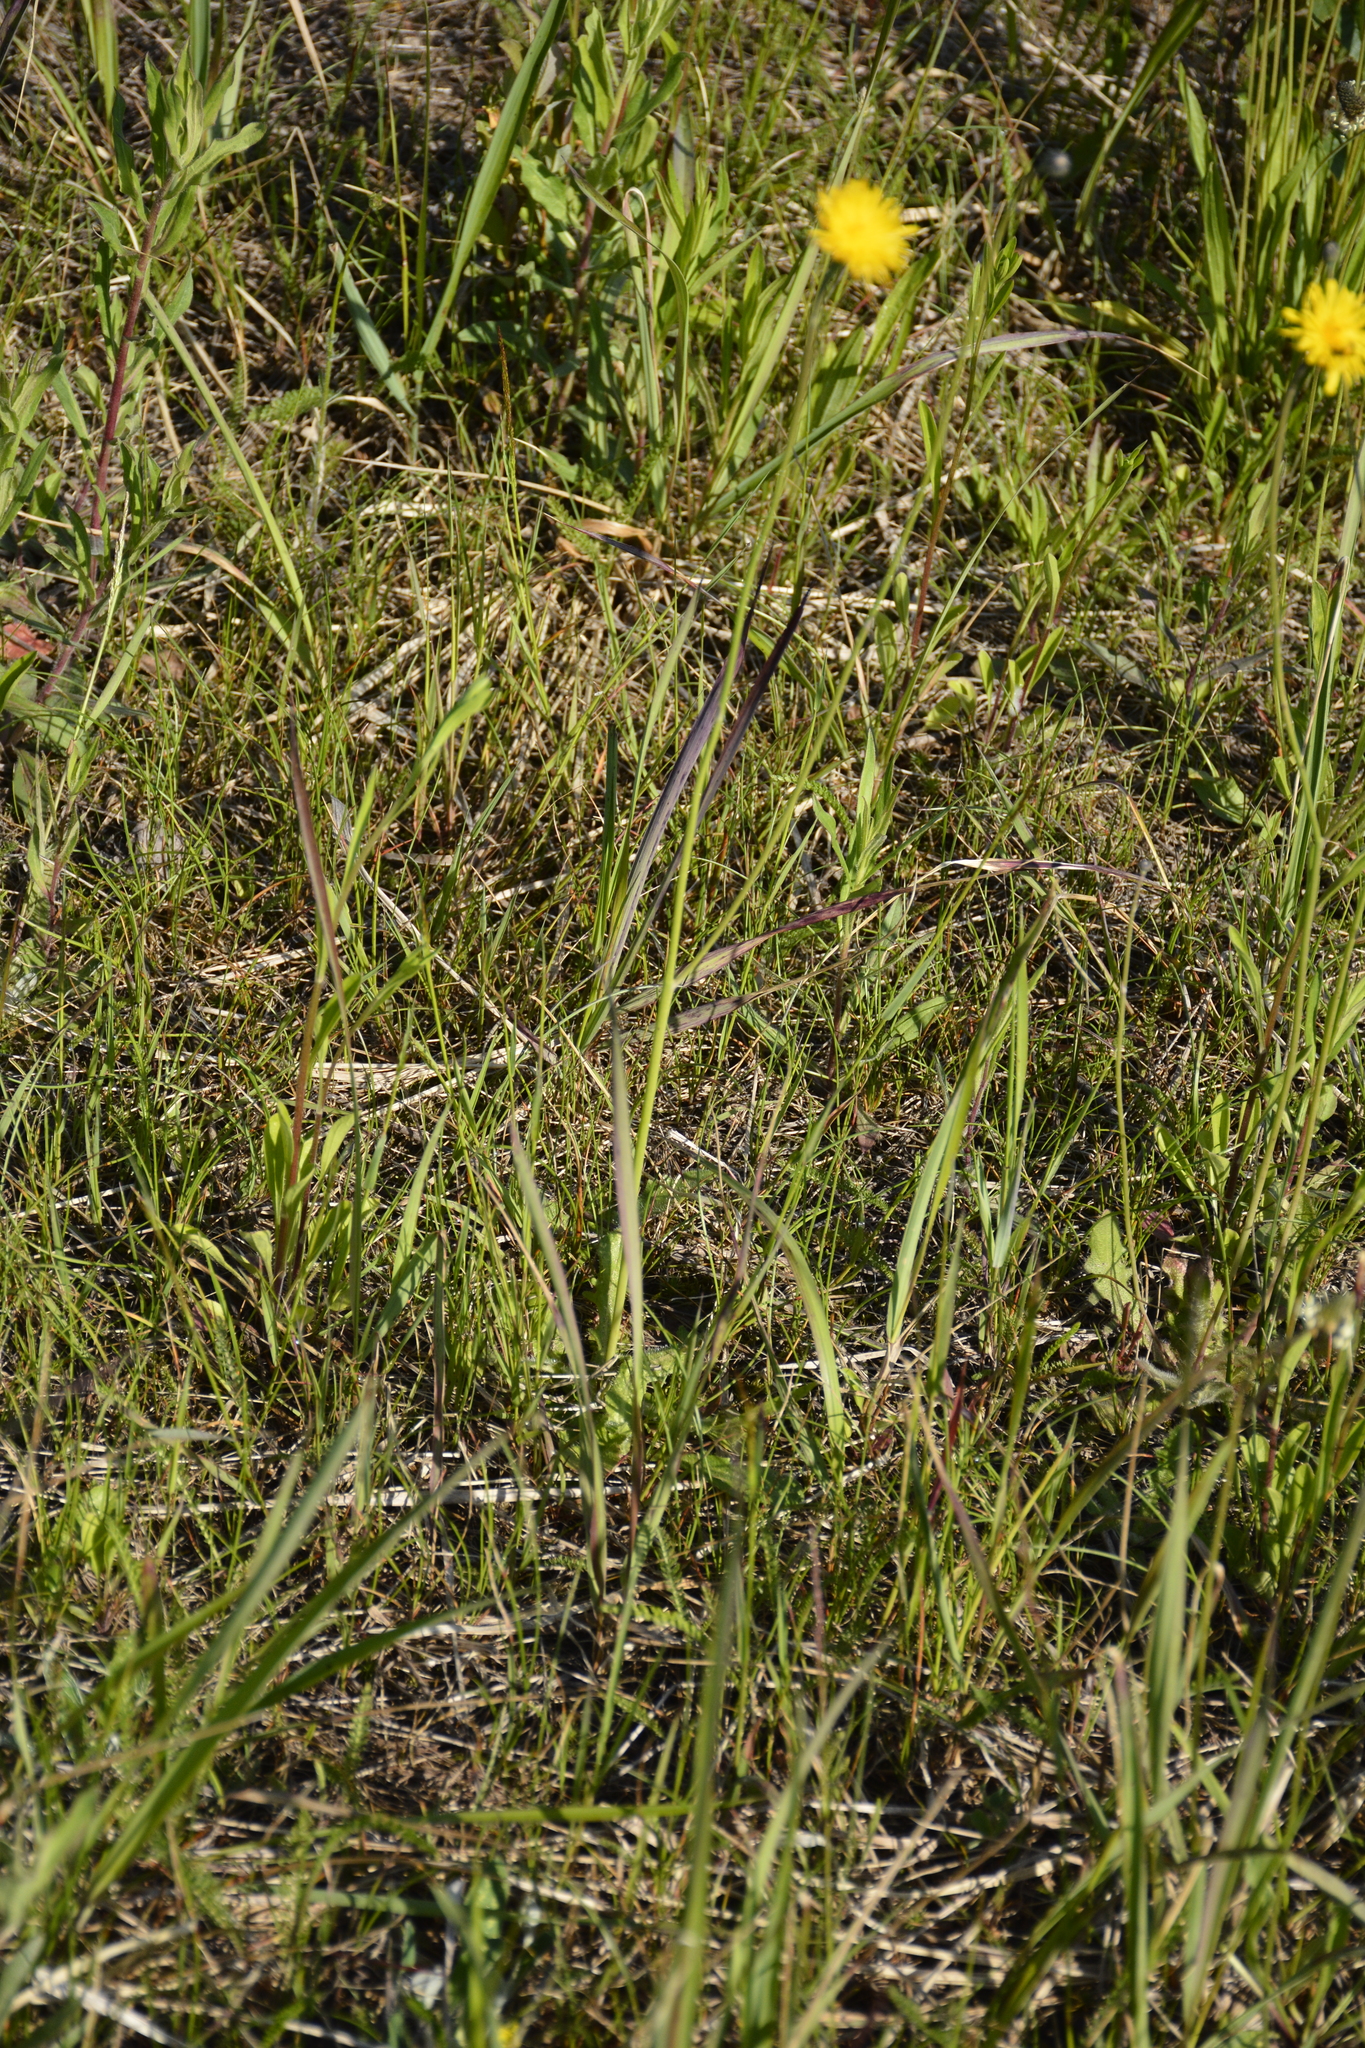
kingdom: Plantae
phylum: Tracheophyta
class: Magnoliopsida
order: Asterales
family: Asteraceae
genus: Hypochaeris
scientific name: Hypochaeris radicata
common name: Flatweed
